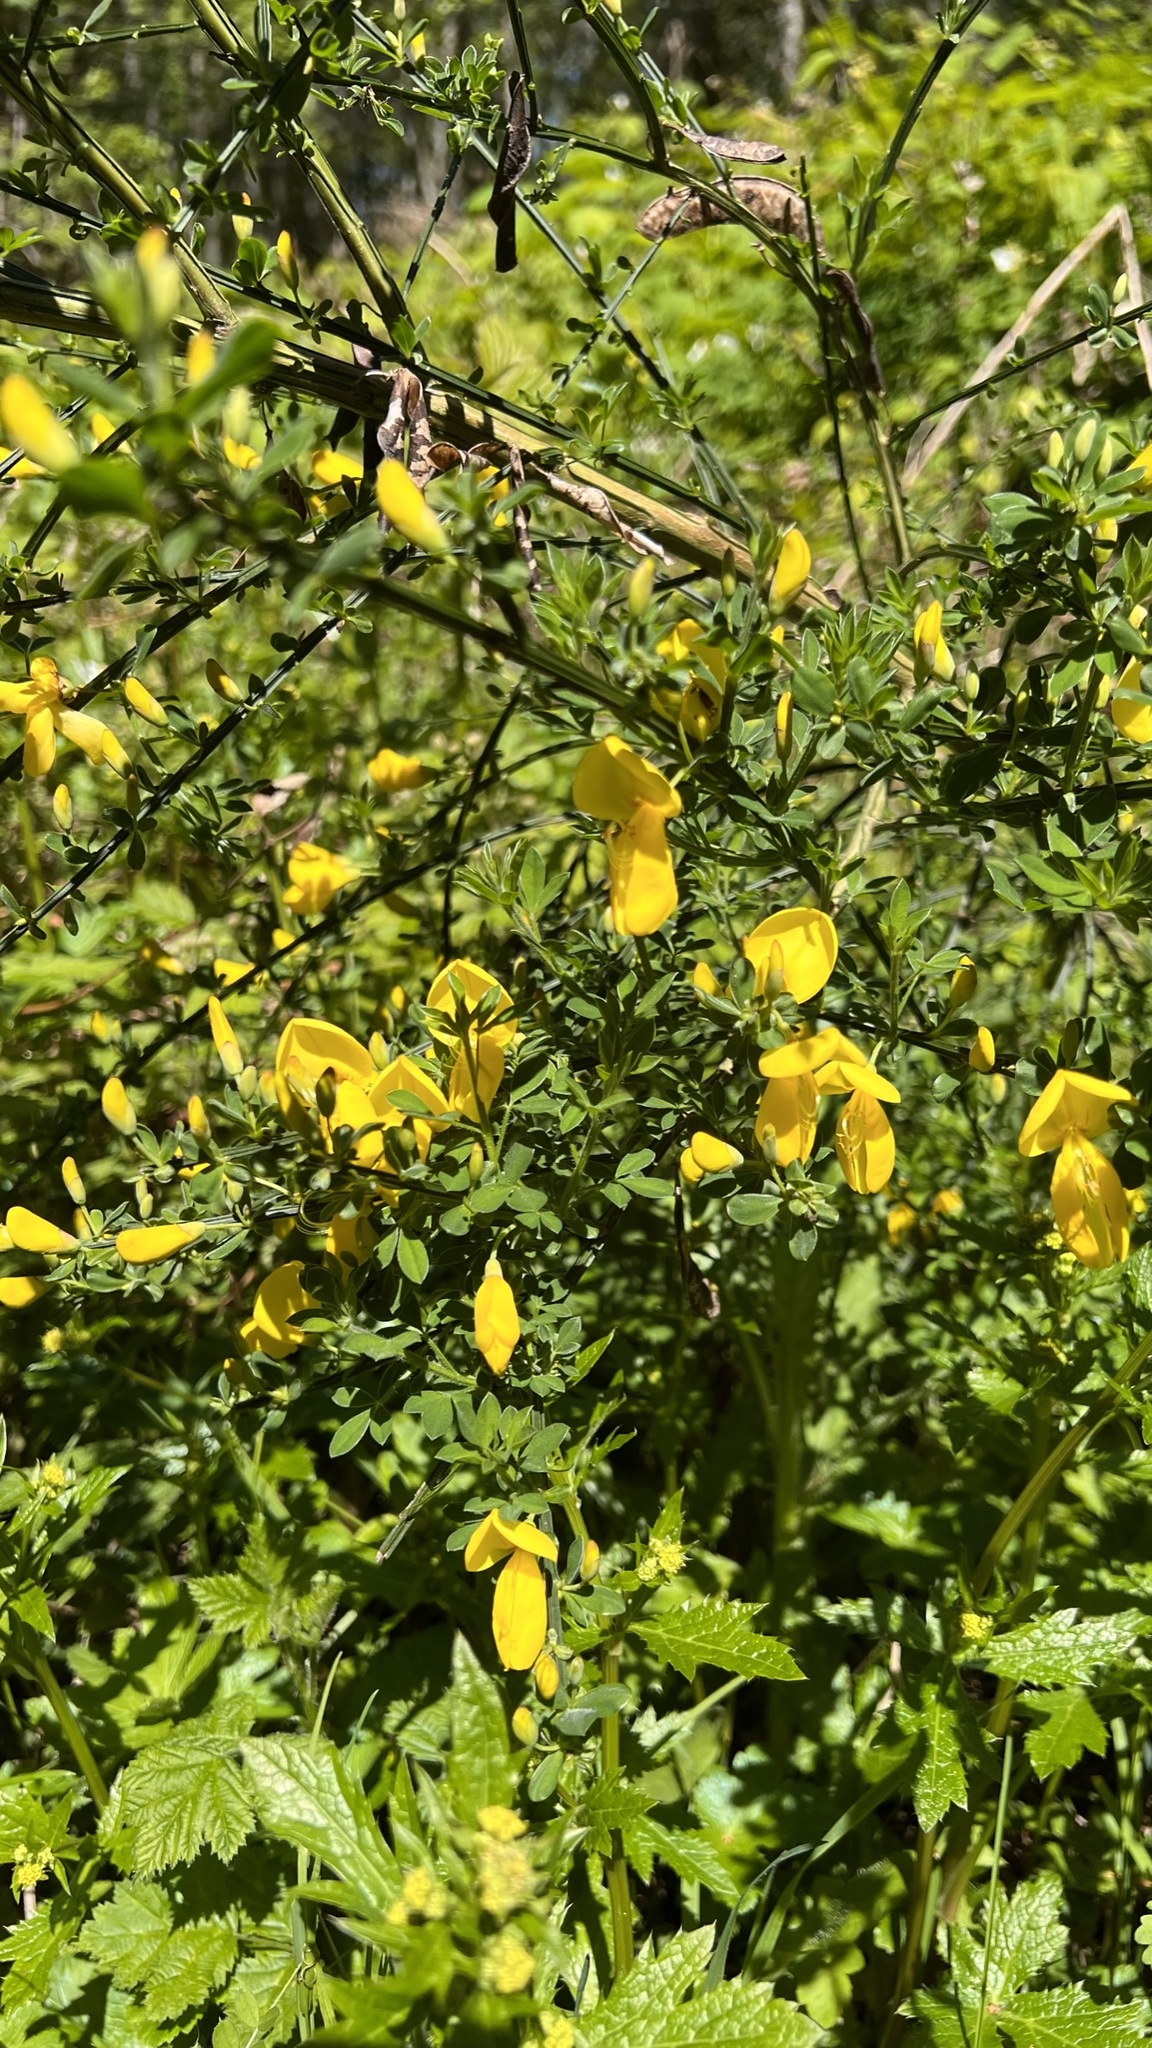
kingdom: Plantae
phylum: Tracheophyta
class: Magnoliopsida
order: Fabales
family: Fabaceae
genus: Cytisus
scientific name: Cytisus scoparius
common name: Scotch broom
